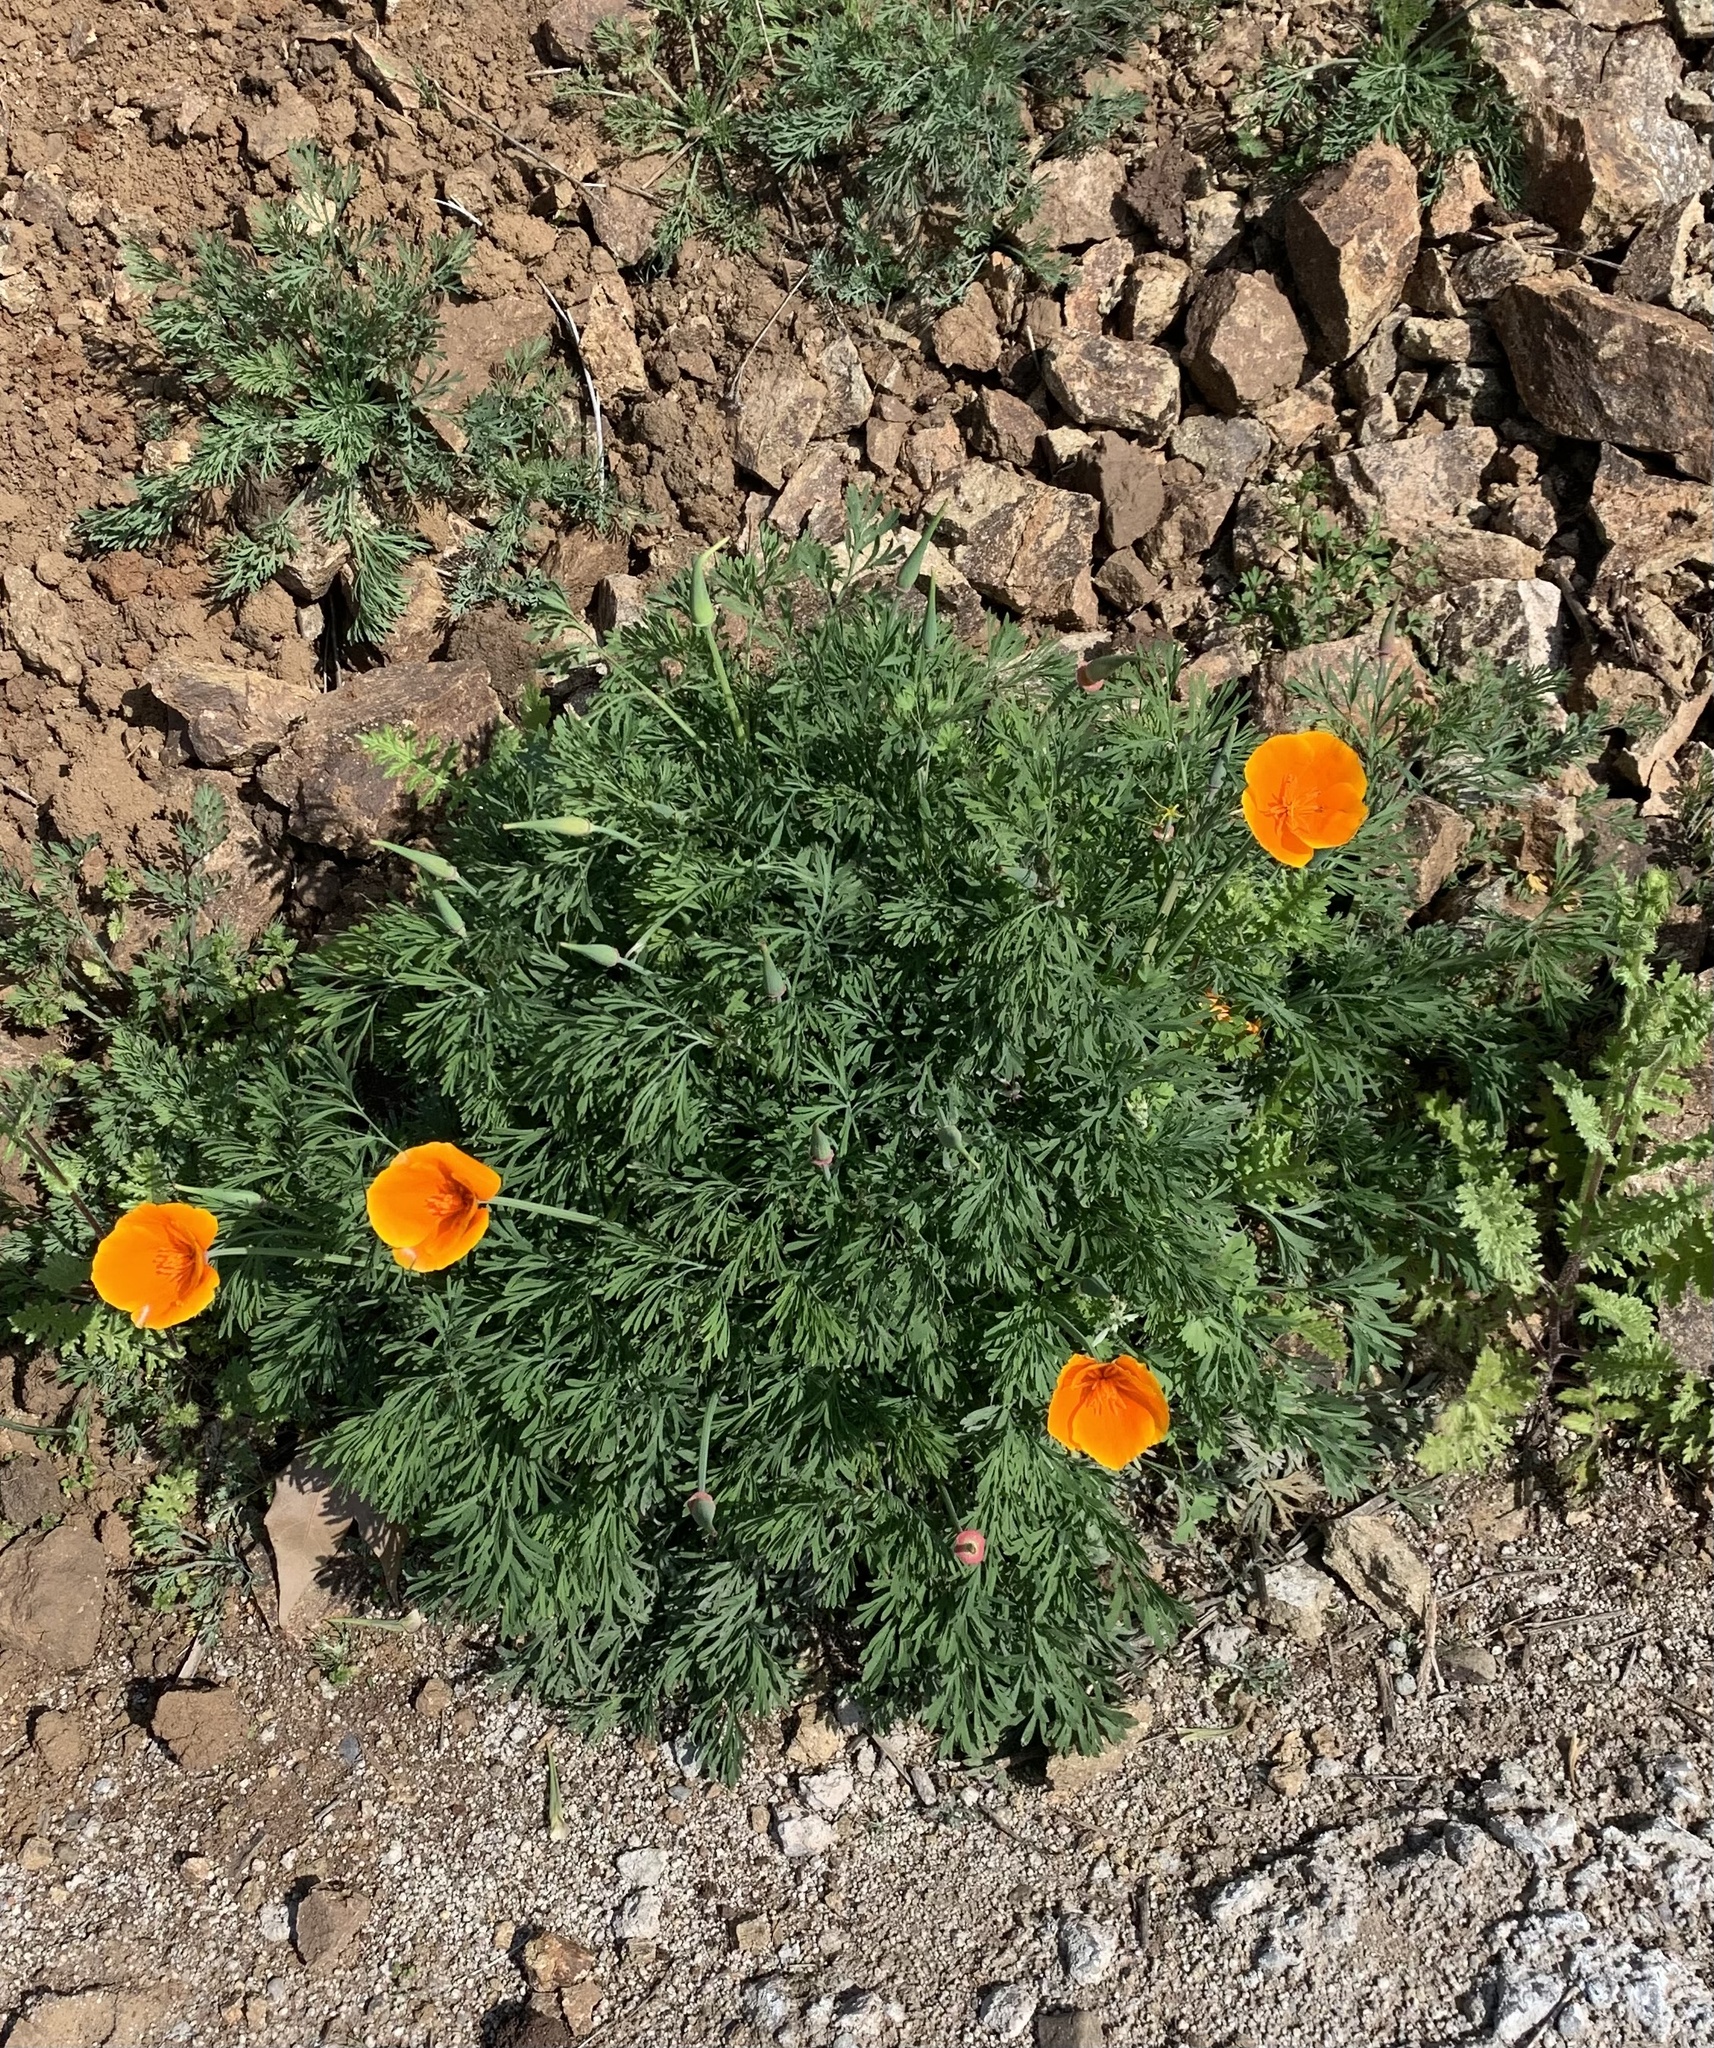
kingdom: Plantae
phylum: Tracheophyta
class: Magnoliopsida
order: Ranunculales
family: Papaveraceae
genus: Eschscholzia
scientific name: Eschscholzia californica
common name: California poppy
